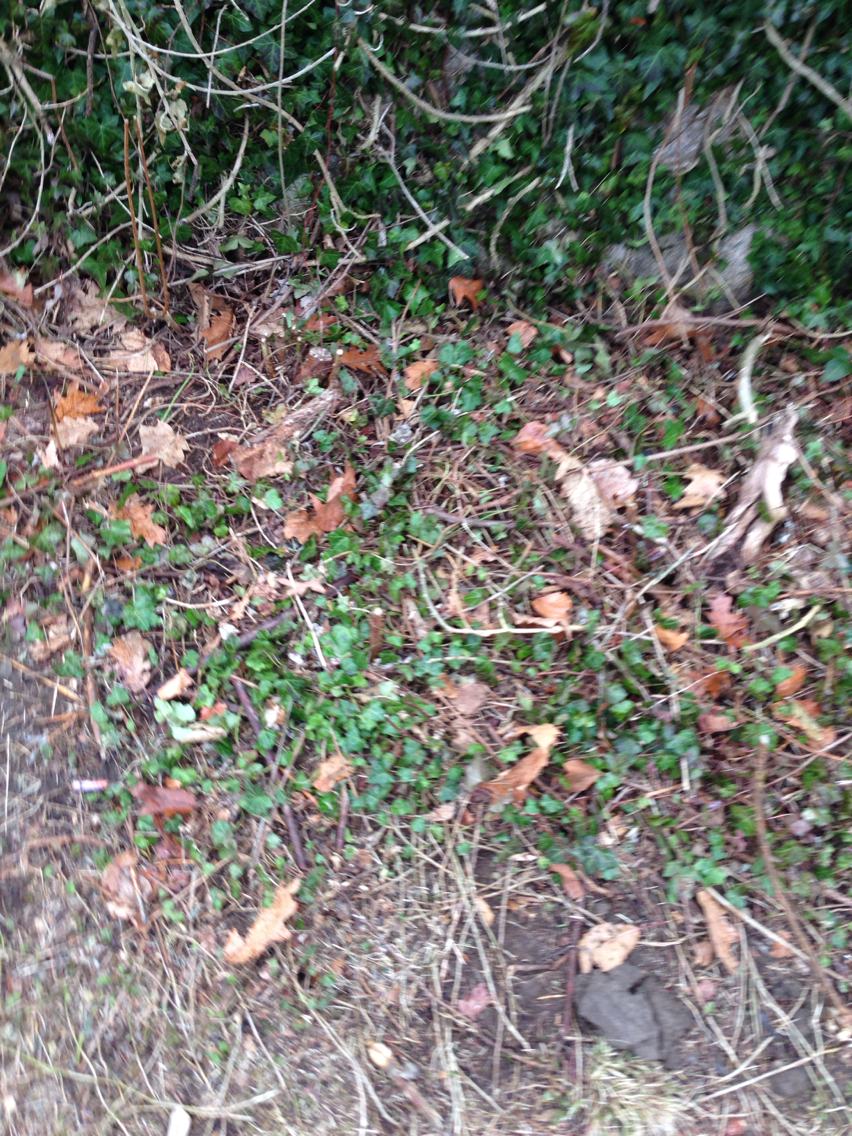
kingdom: Plantae
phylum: Tracheophyta
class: Magnoliopsida
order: Apiales
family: Araliaceae
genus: Hedera
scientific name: Hedera helix
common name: Ivy
